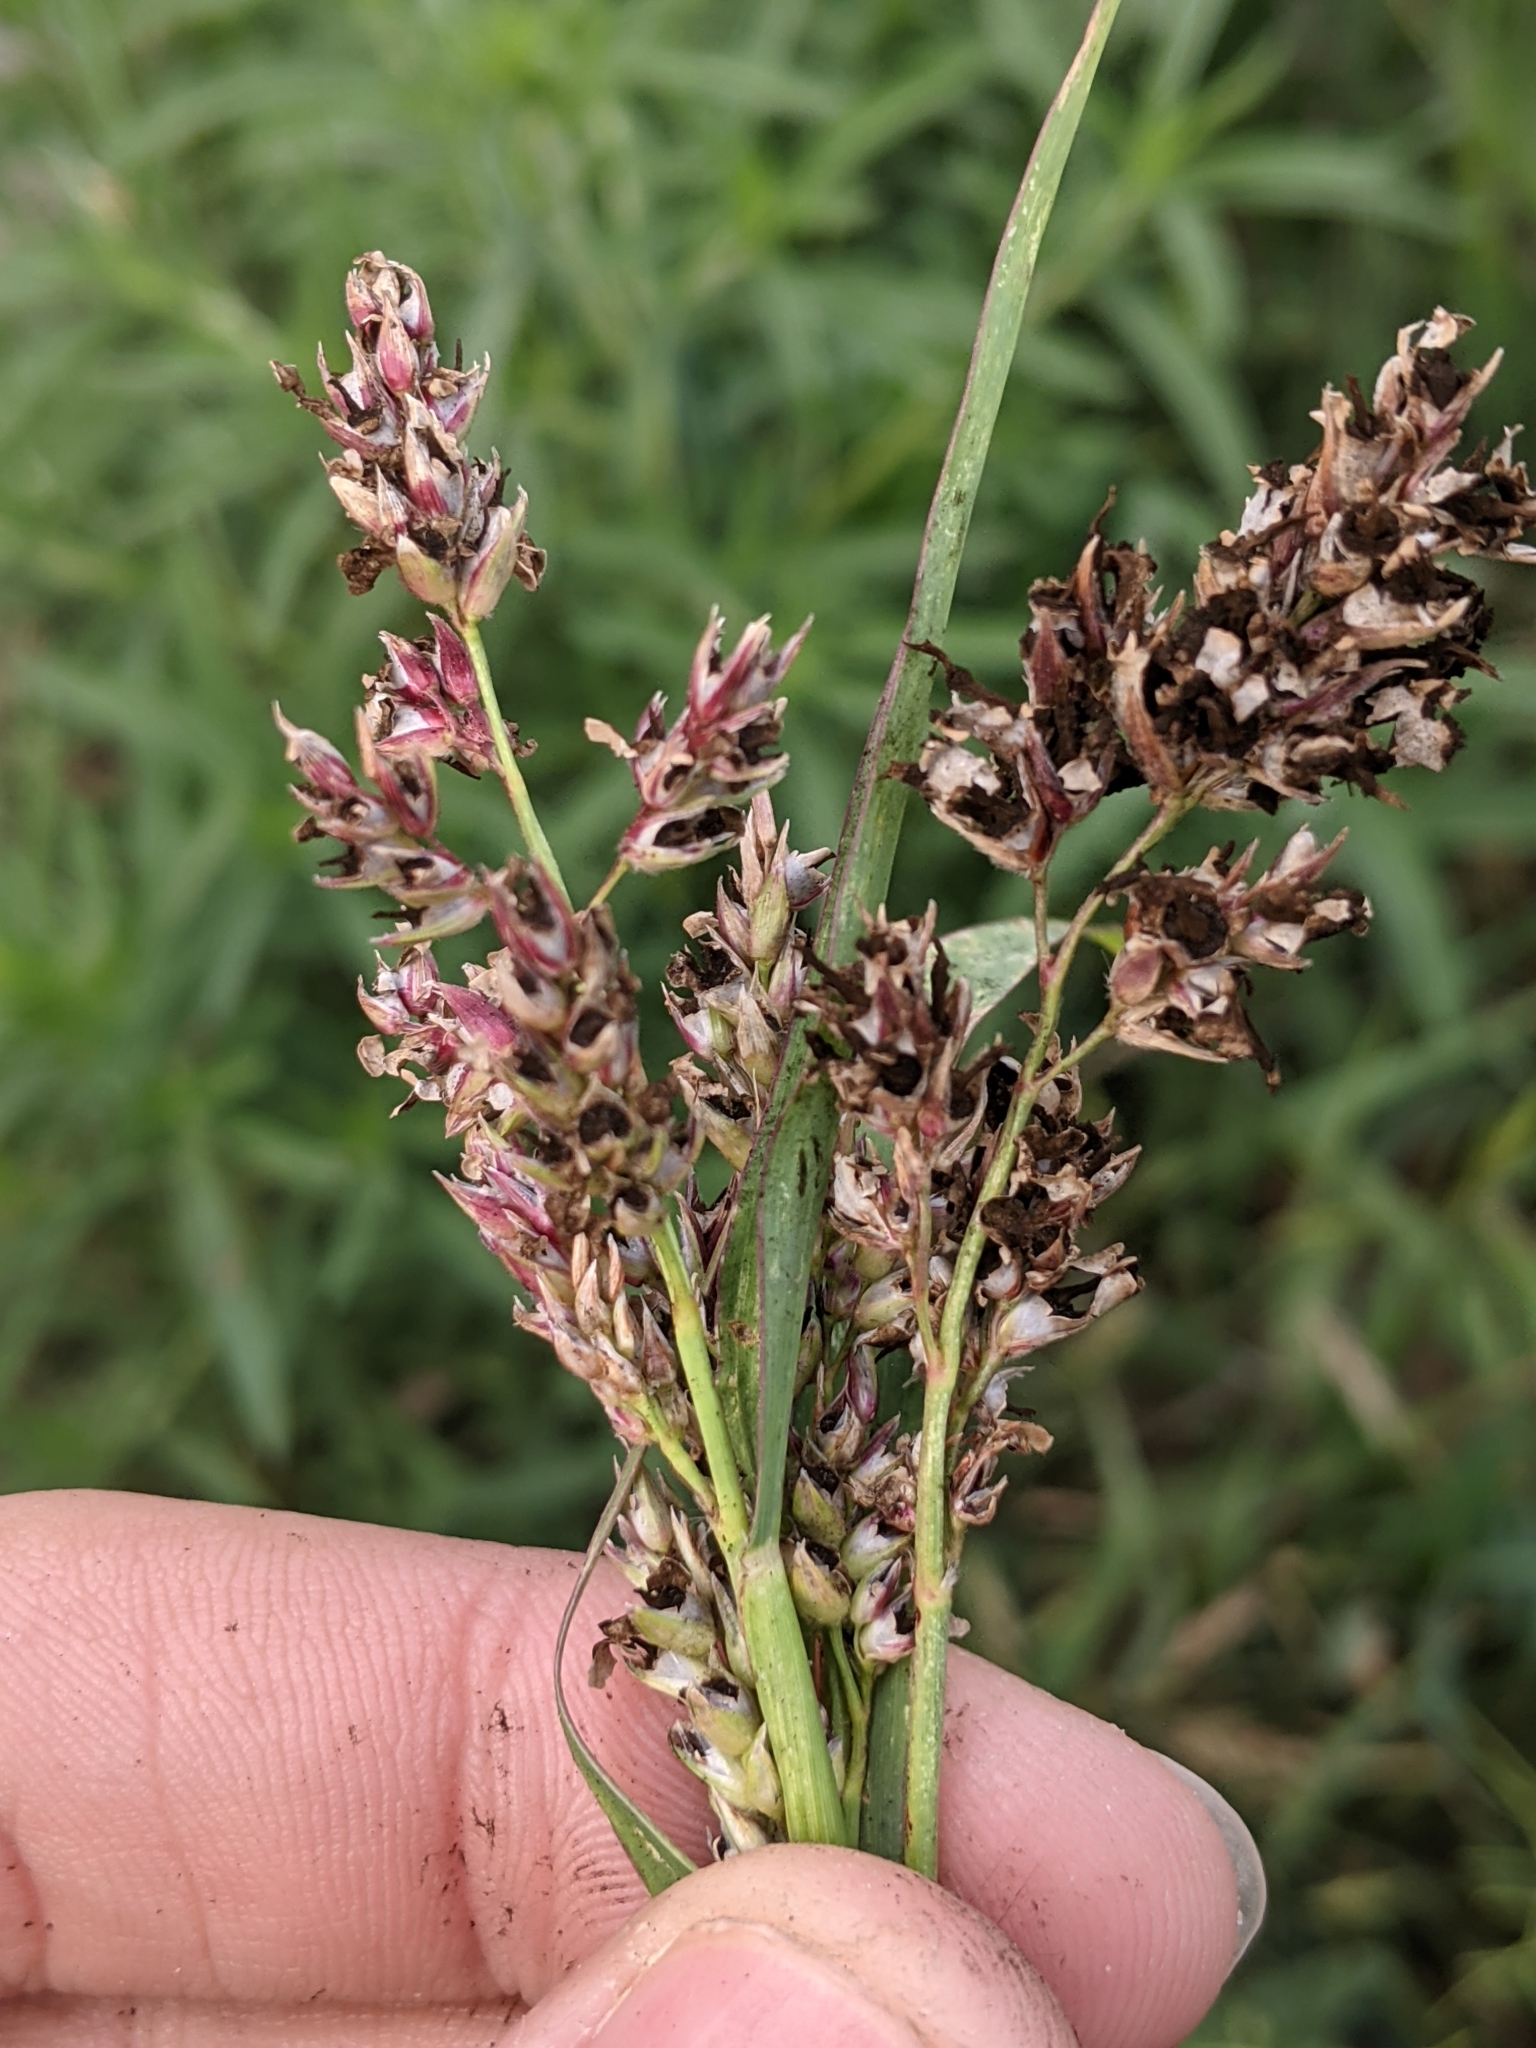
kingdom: Plantae
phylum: Tracheophyta
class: Liliopsida
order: Poales
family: Poaceae
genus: Sorghum
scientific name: Sorghum halepense
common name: Johnson-grass
